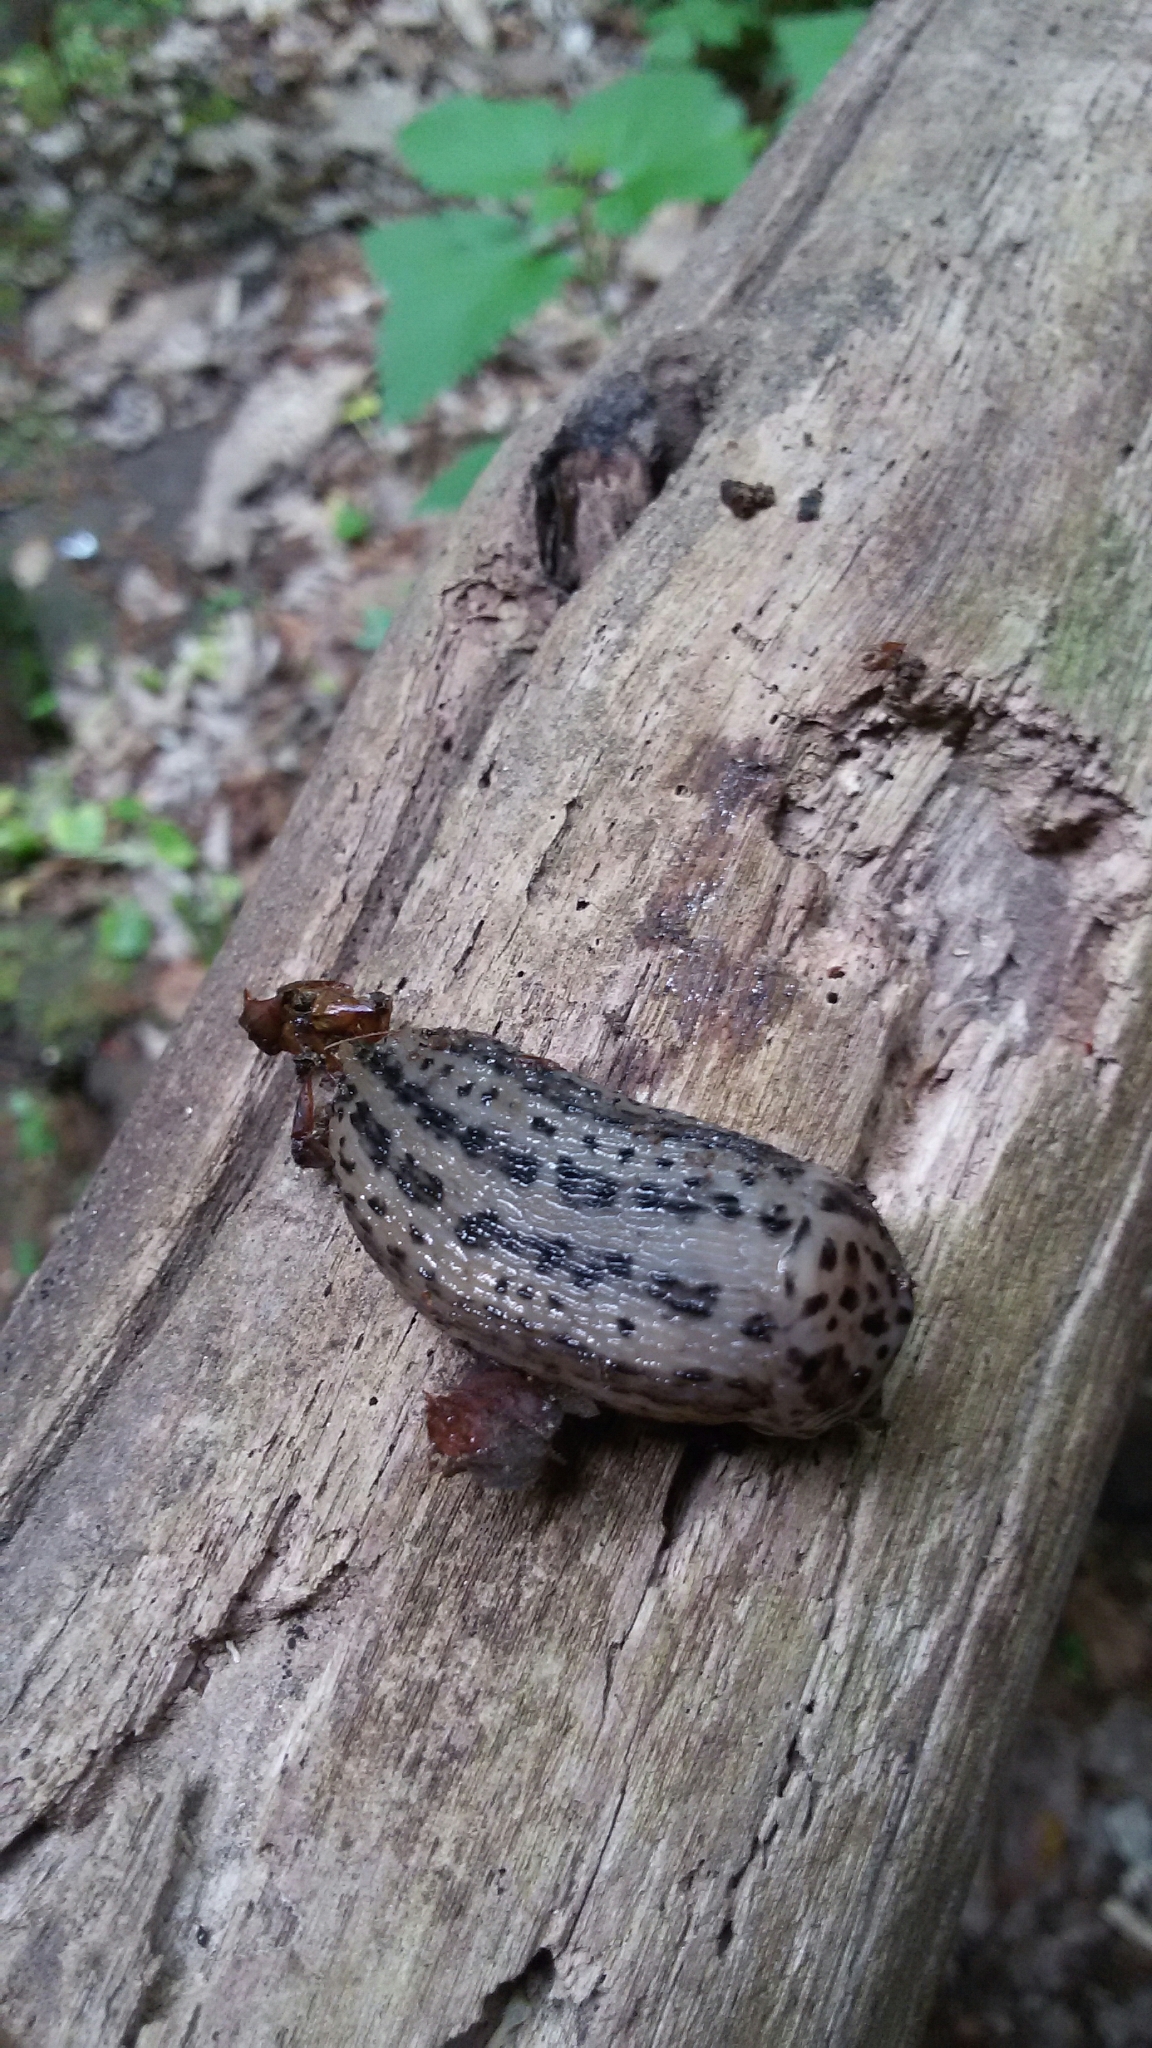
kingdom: Animalia
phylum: Mollusca
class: Gastropoda
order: Stylommatophora
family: Limacidae
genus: Limax
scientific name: Limax maximus
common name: Great grey slug
